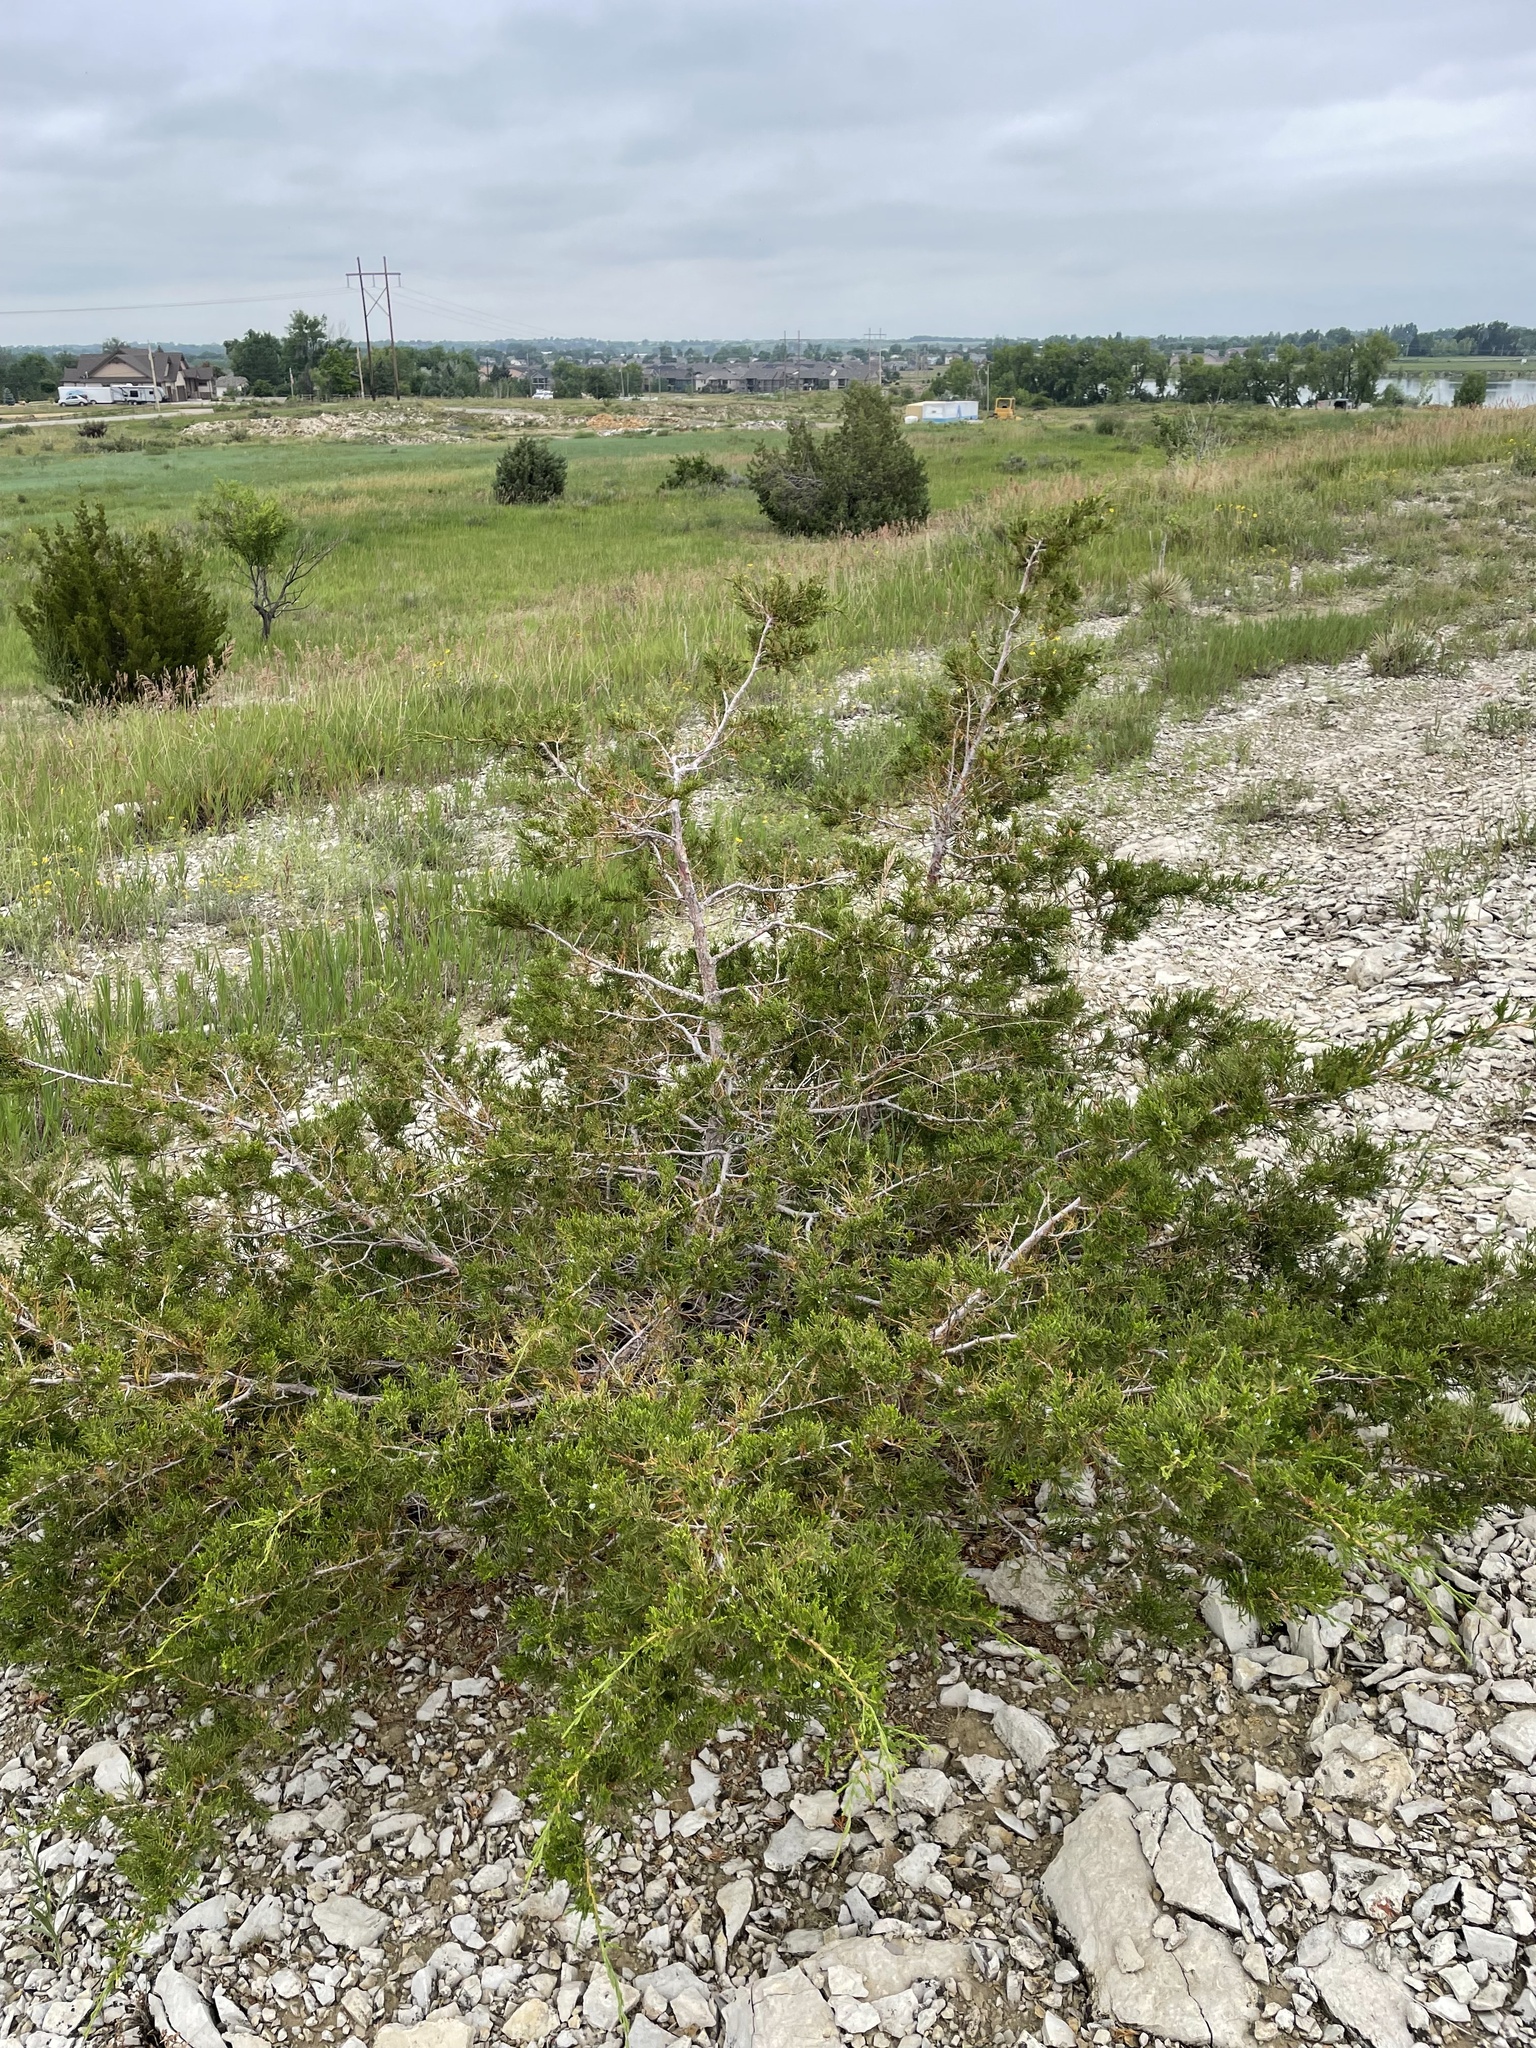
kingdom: Plantae
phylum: Tracheophyta
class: Pinopsida
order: Pinales
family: Cupressaceae
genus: Juniperus
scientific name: Juniperus communis
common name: Common juniper
